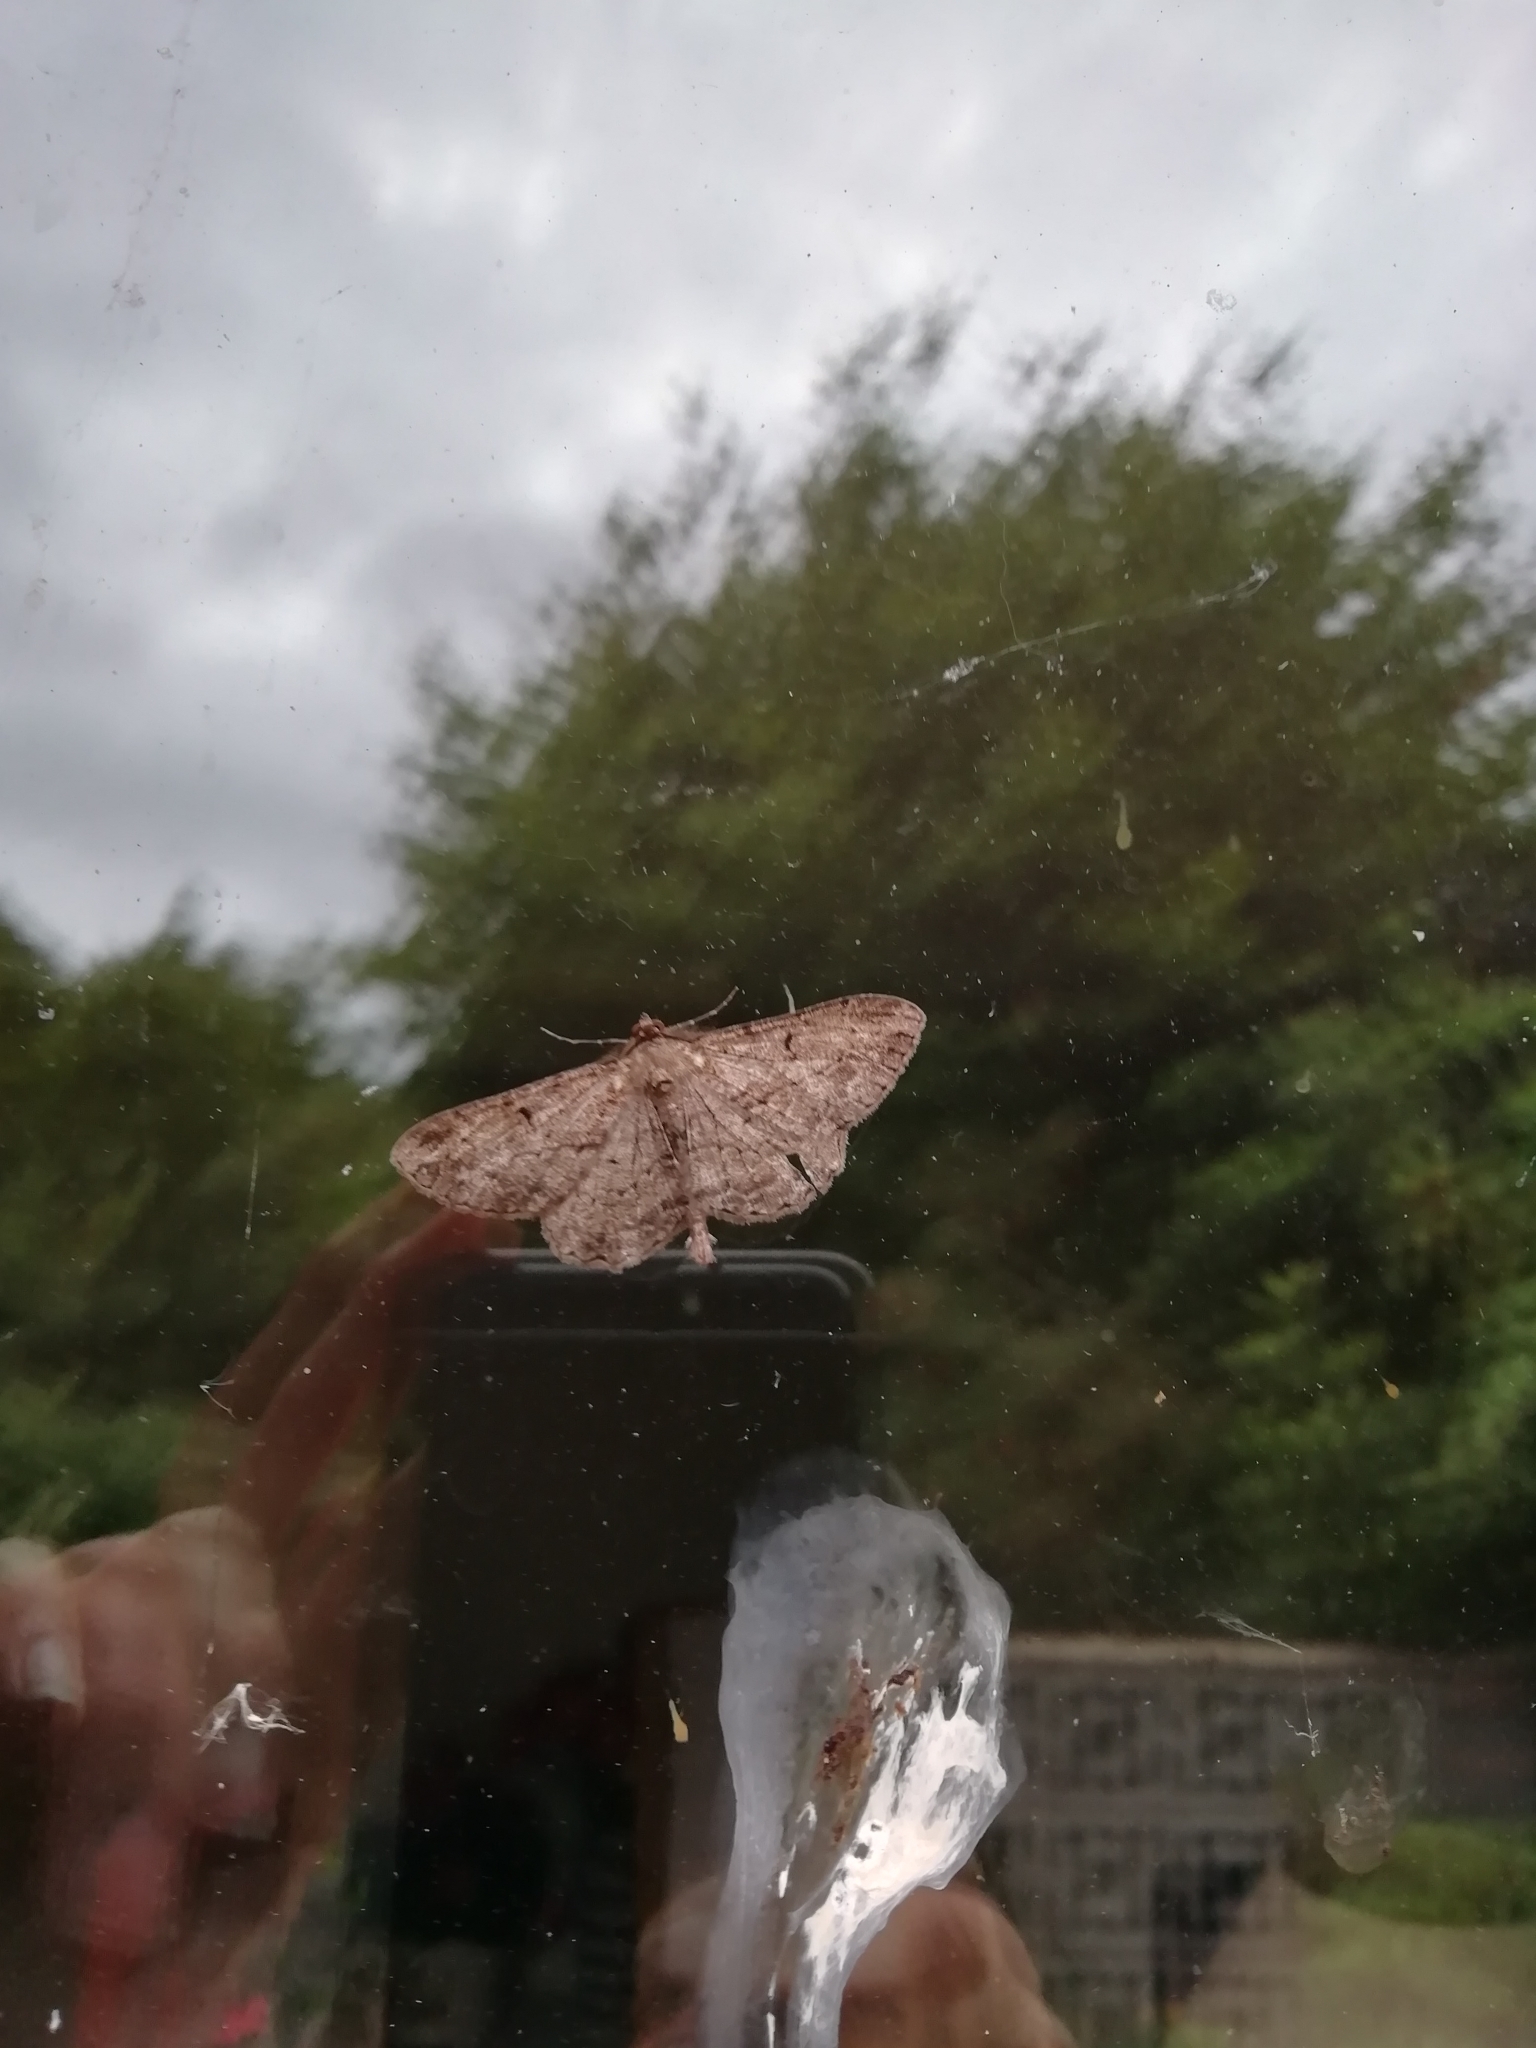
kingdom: Animalia
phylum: Arthropoda
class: Insecta
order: Lepidoptera
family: Geometridae
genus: Peribatodes
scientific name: Peribatodes rhomboidaria
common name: Willow beauty
